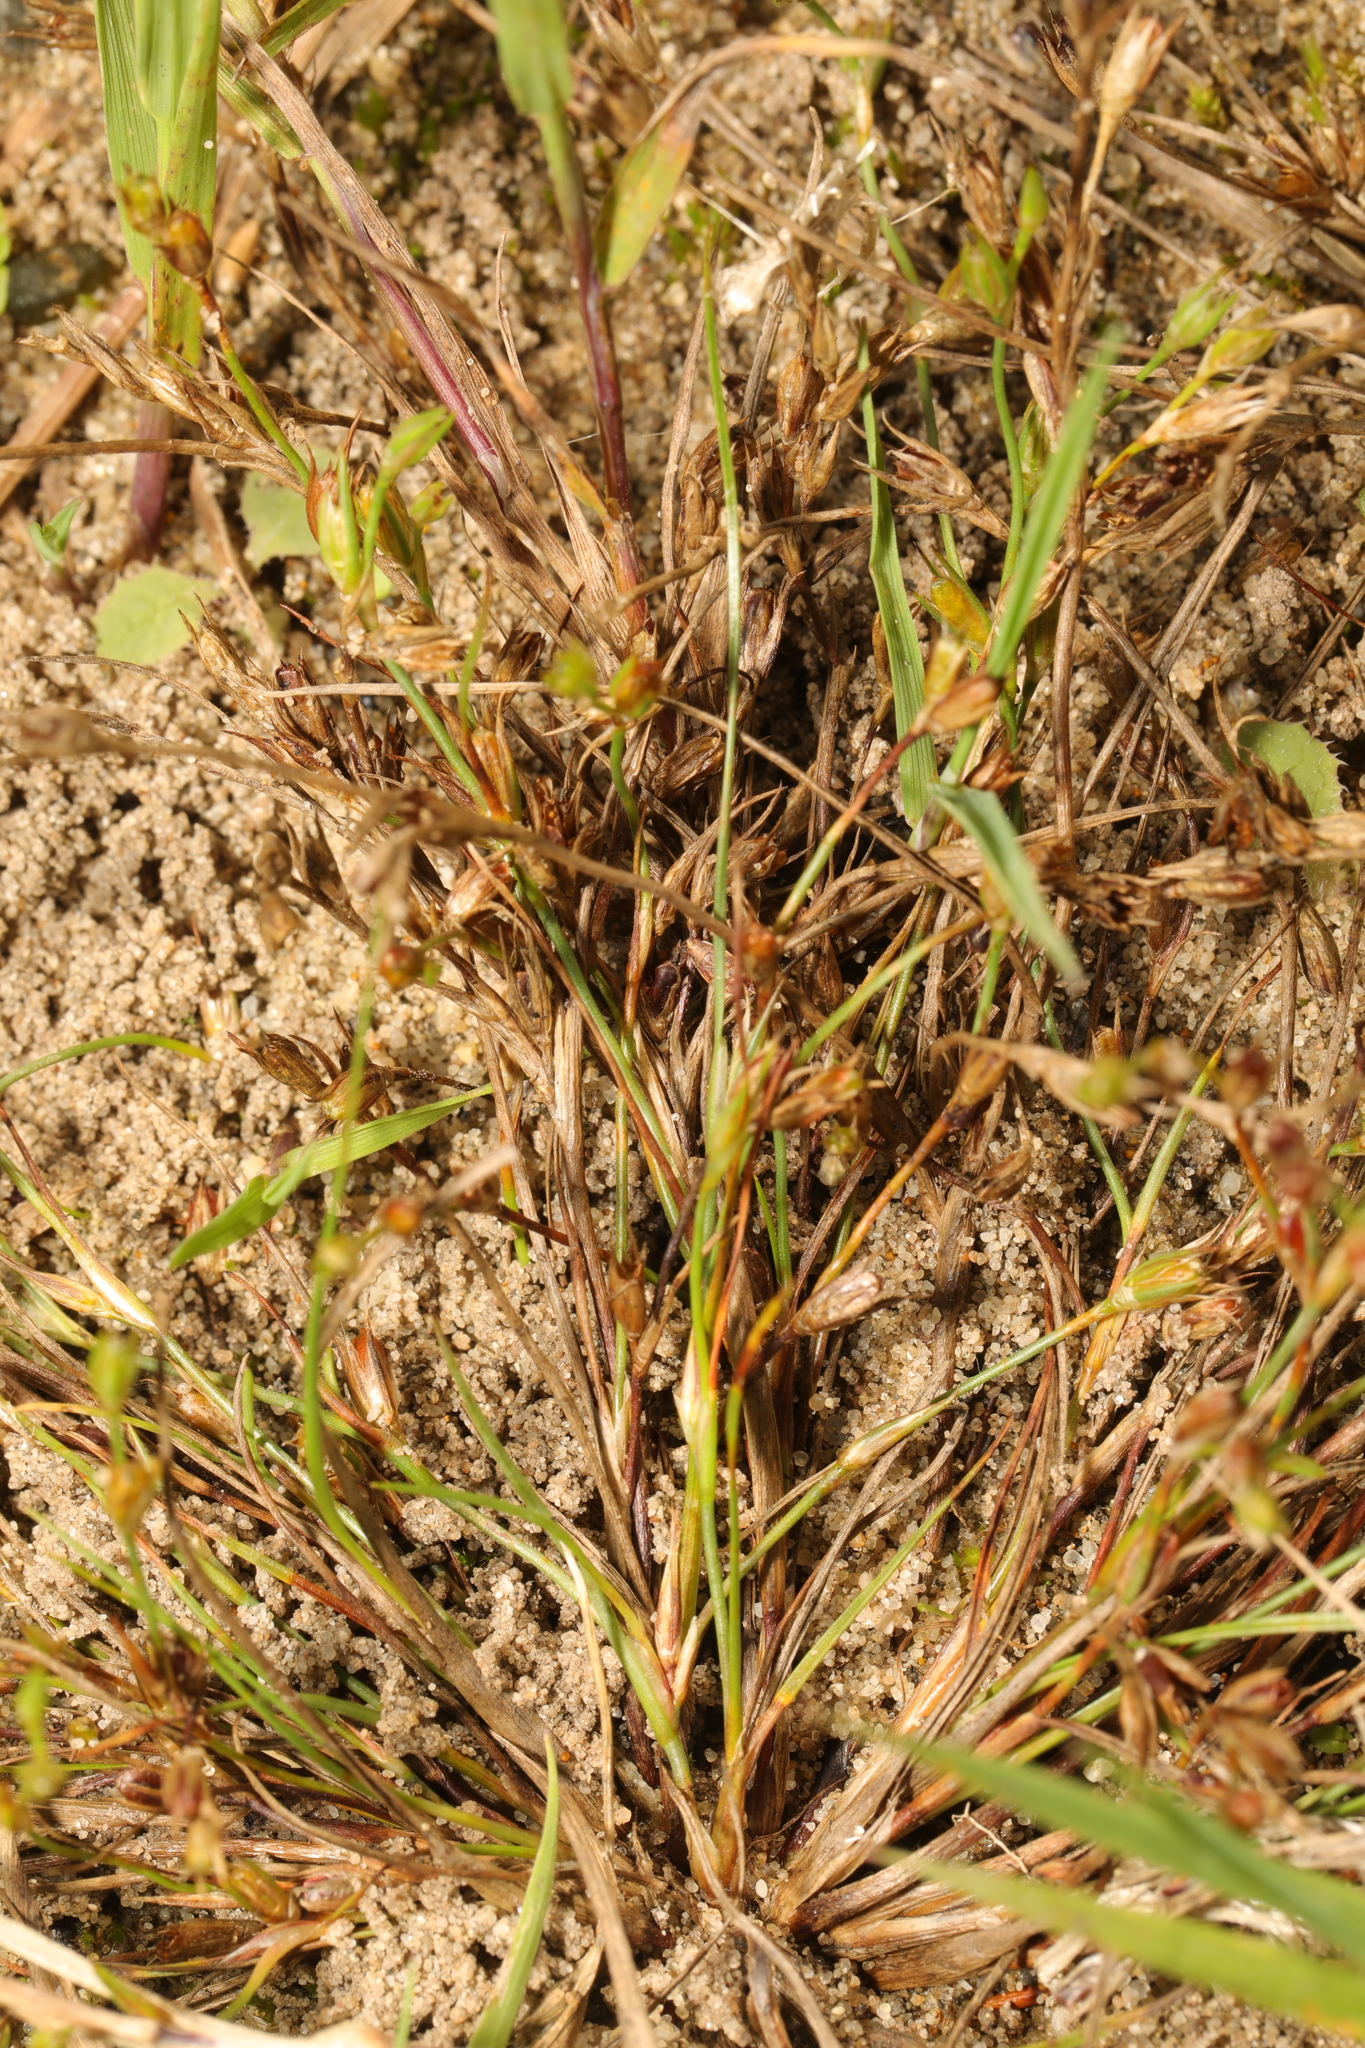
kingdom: Plantae
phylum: Tracheophyta
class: Liliopsida
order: Poales
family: Juncaceae
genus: Juncus
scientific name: Juncus bufonius
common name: Toad rush
